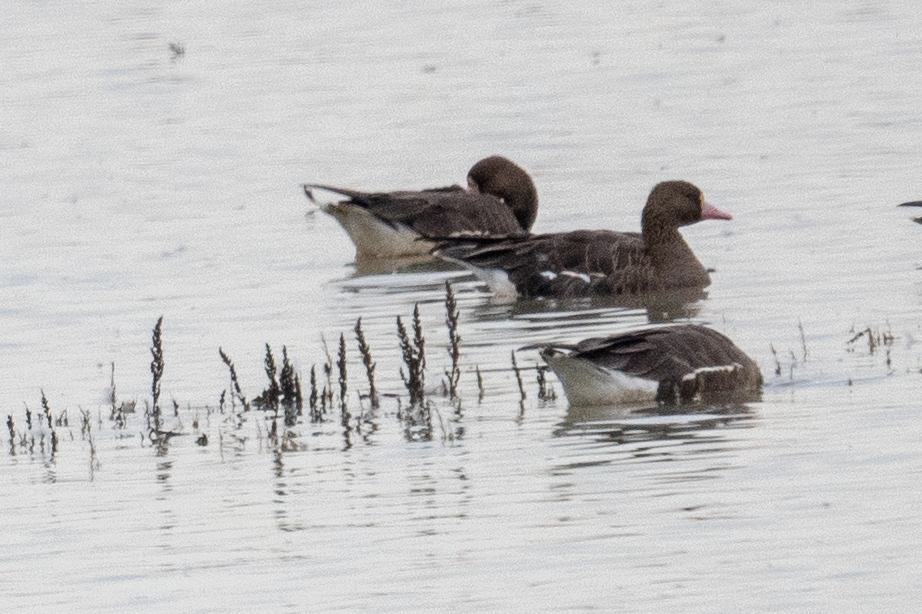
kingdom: Animalia
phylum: Chordata
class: Aves
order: Anseriformes
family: Anatidae
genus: Anser
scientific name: Anser albifrons
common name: Greater white-fronted goose
